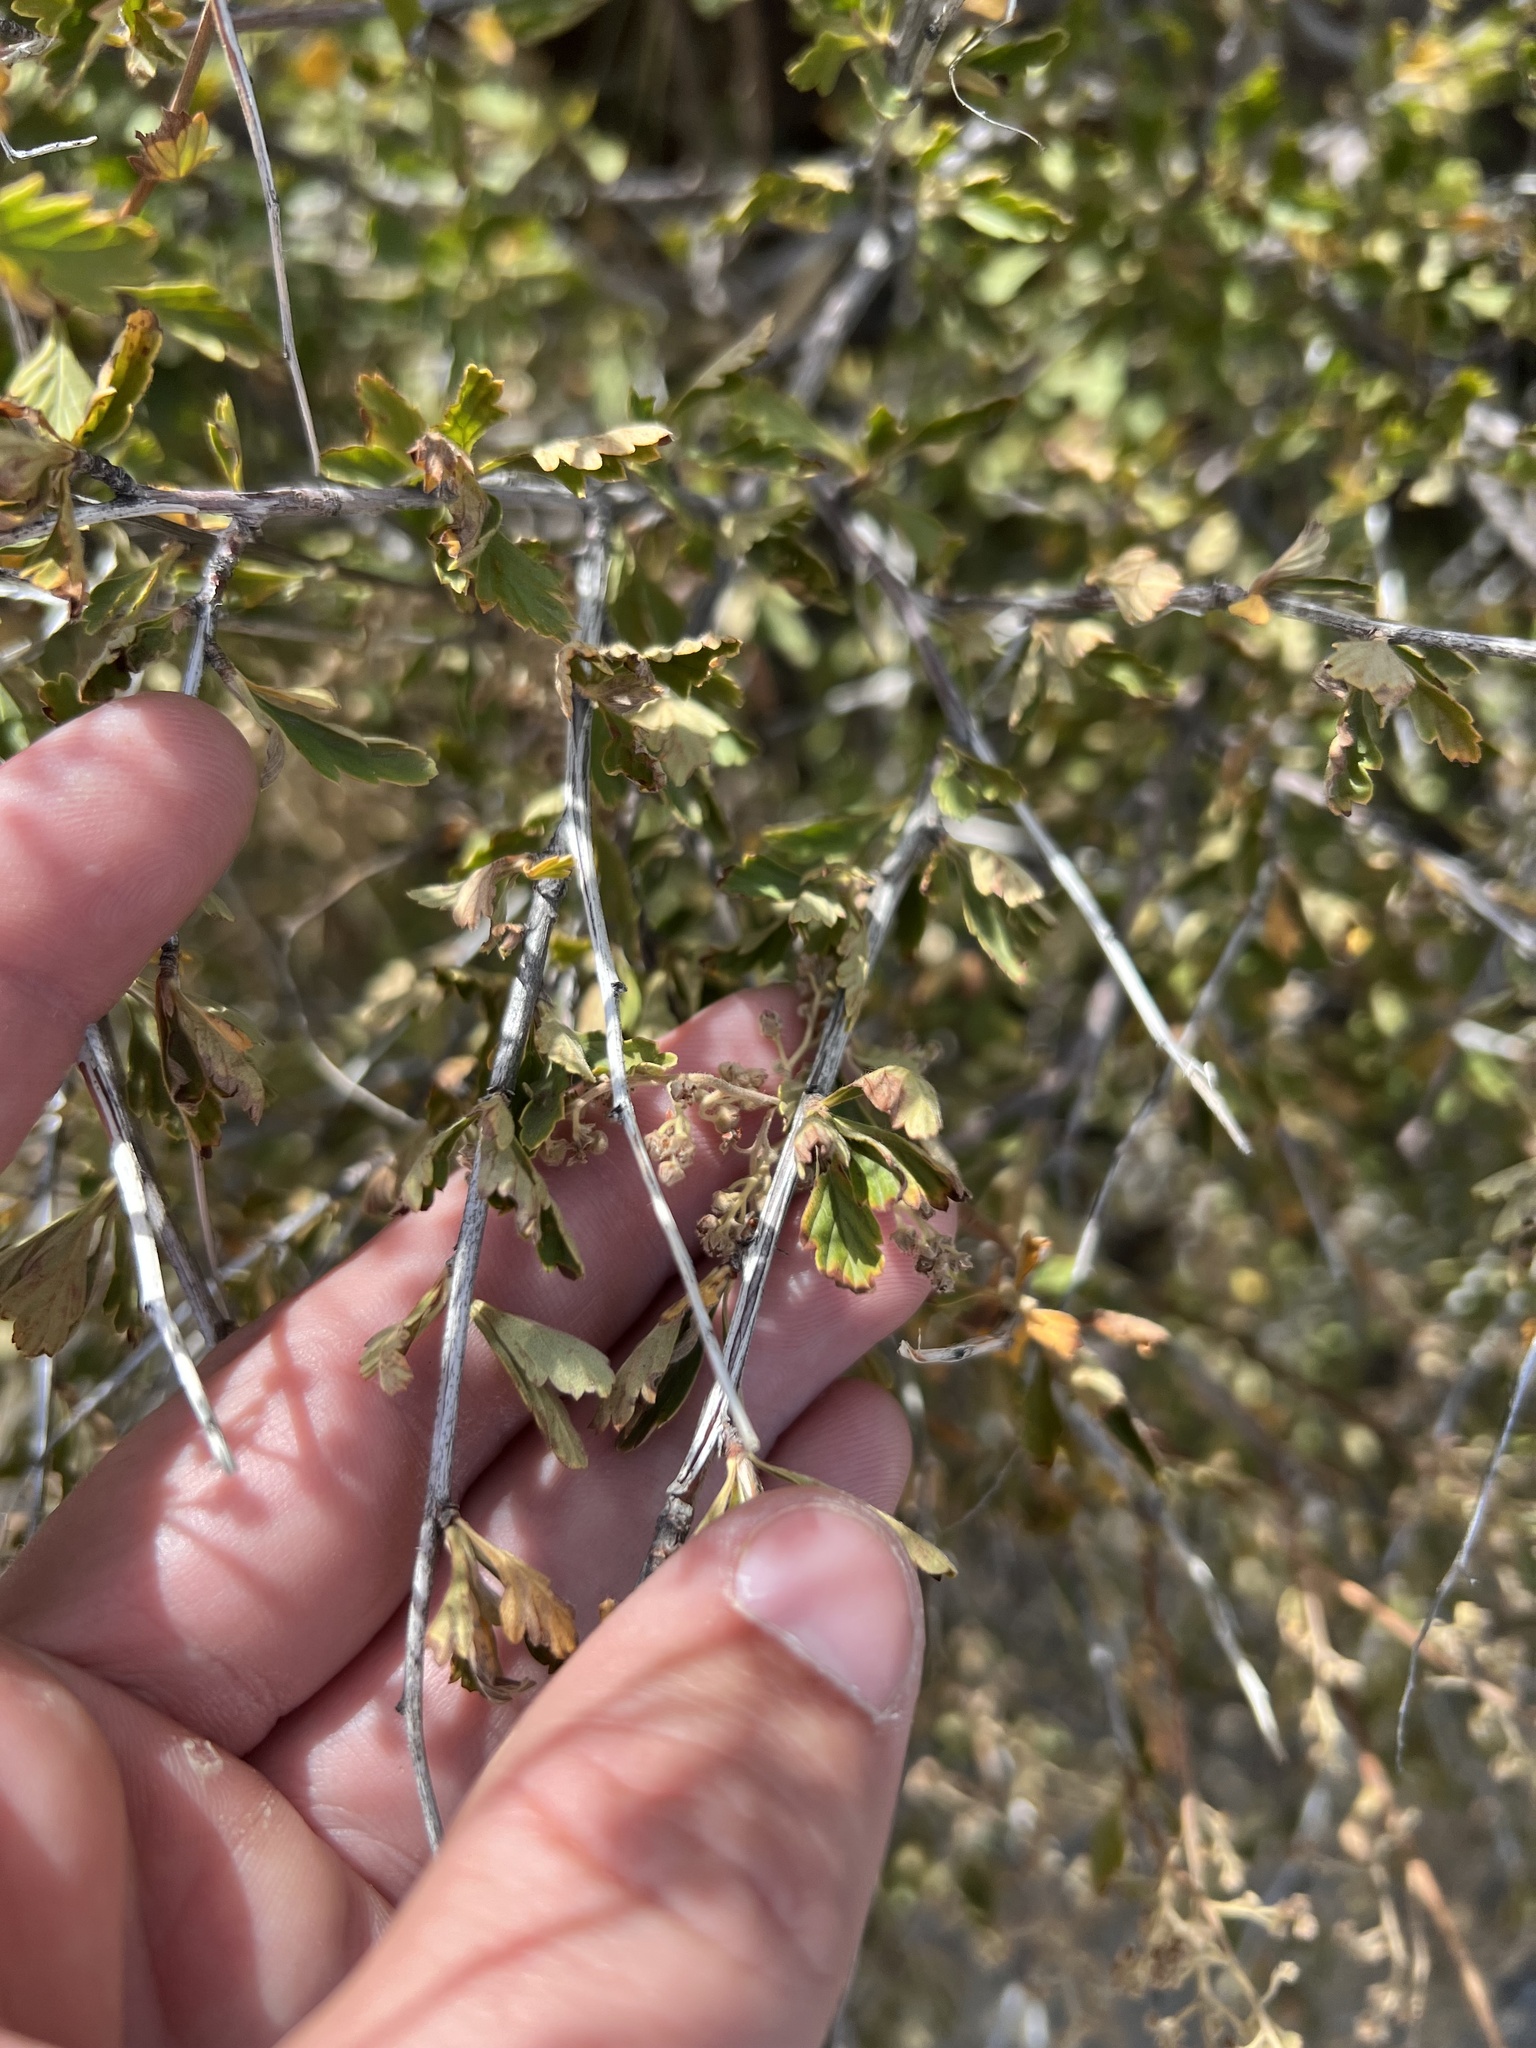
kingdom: Plantae
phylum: Tracheophyta
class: Magnoliopsida
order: Rosales
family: Rosaceae
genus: Cercocarpus
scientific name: Cercocarpus montanus
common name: Alder-leaf cercocarpus
